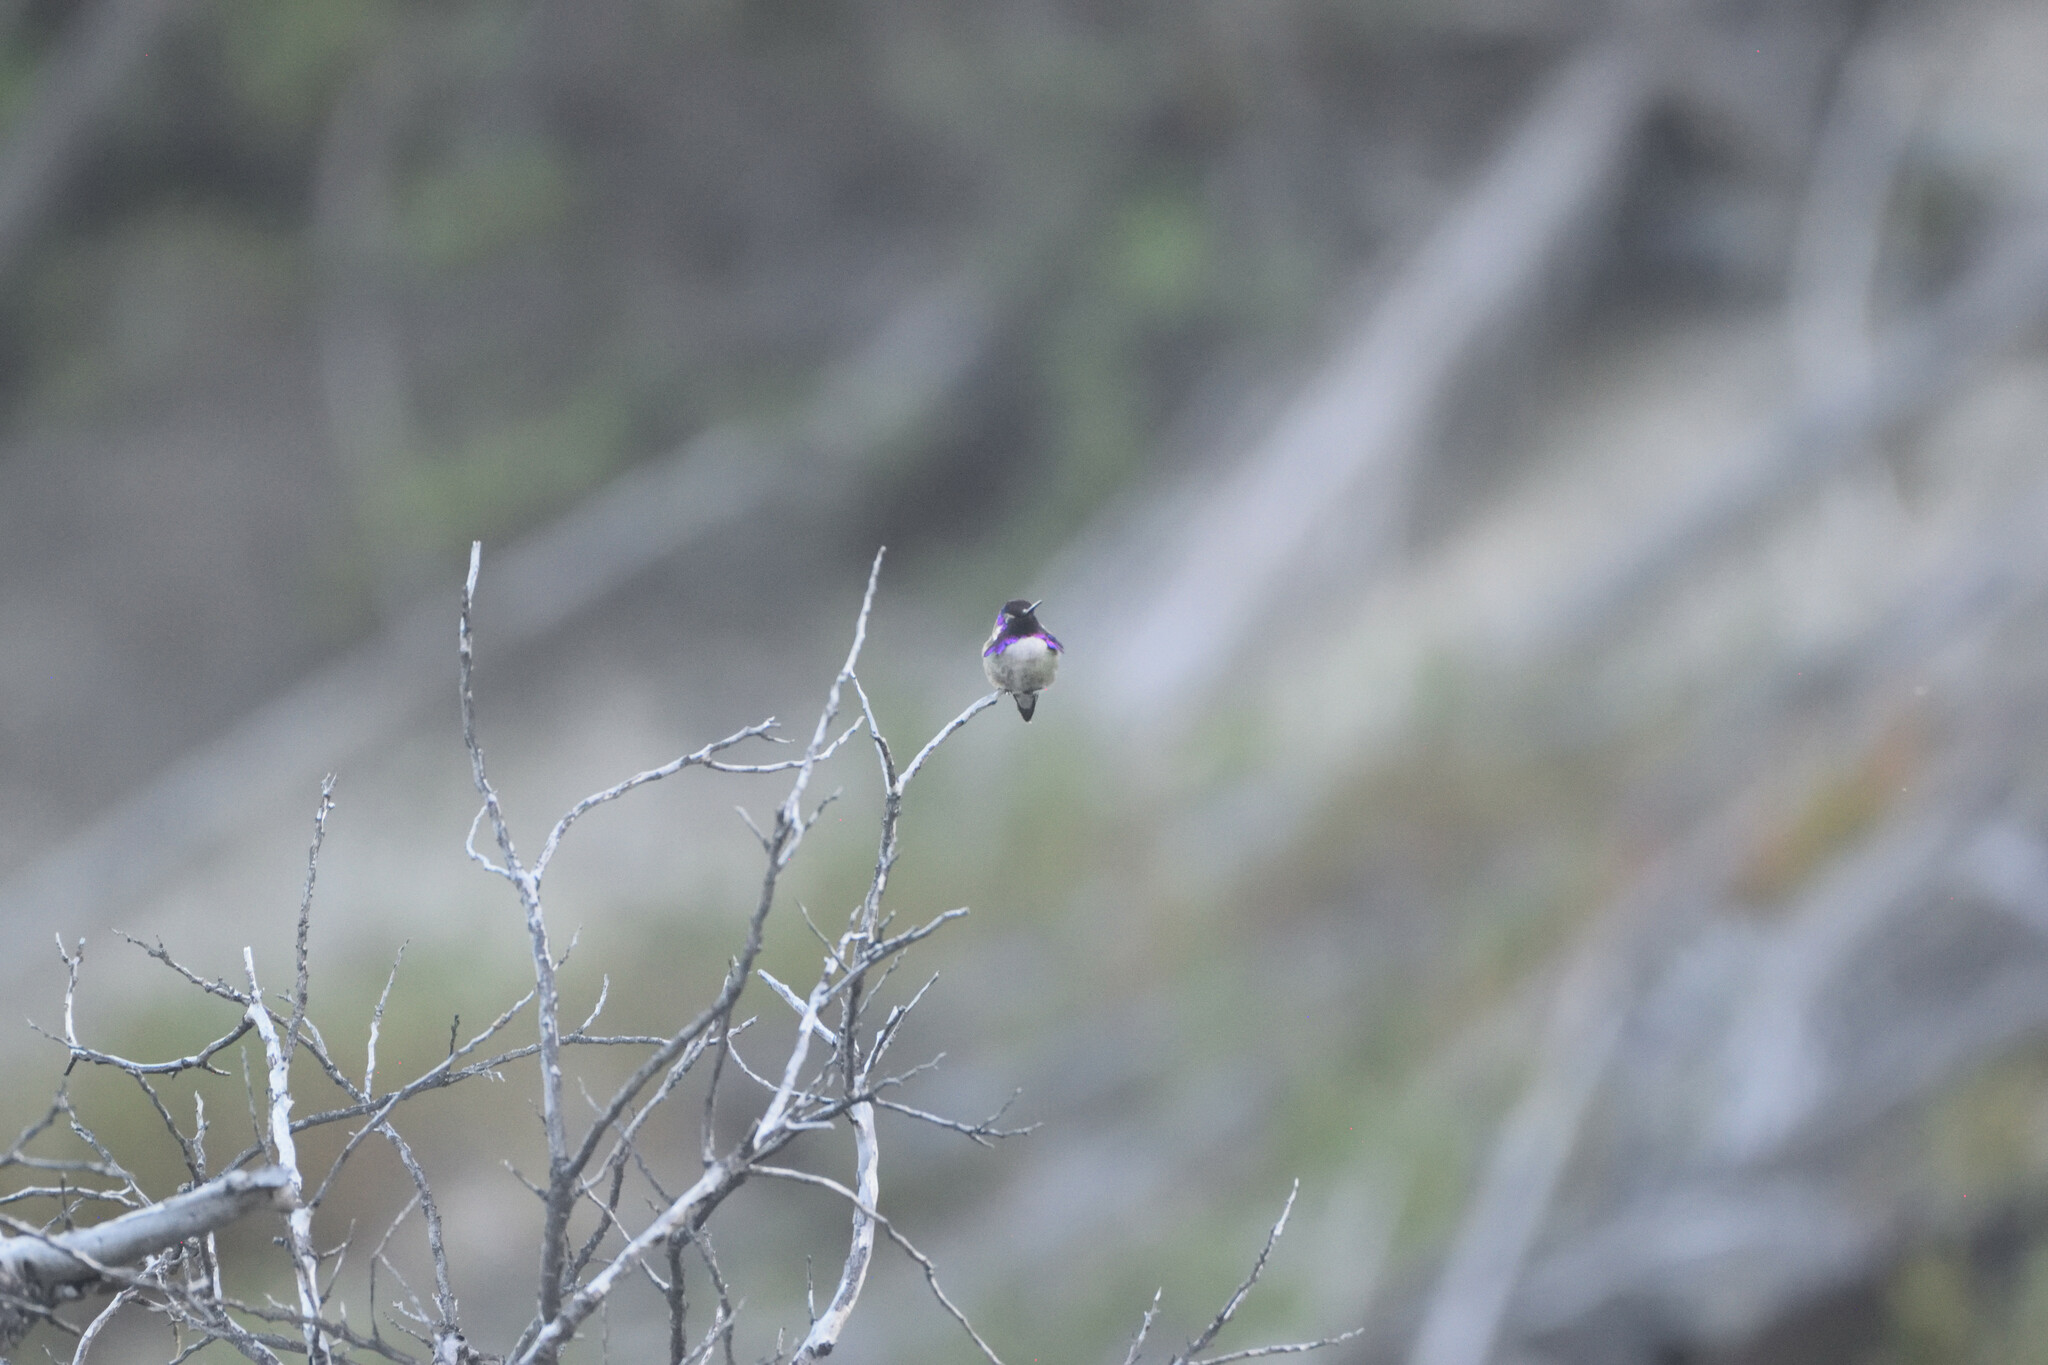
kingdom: Animalia
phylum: Chordata
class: Aves
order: Apodiformes
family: Trochilidae
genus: Calypte
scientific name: Calypte costae
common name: Costa's hummingbird
